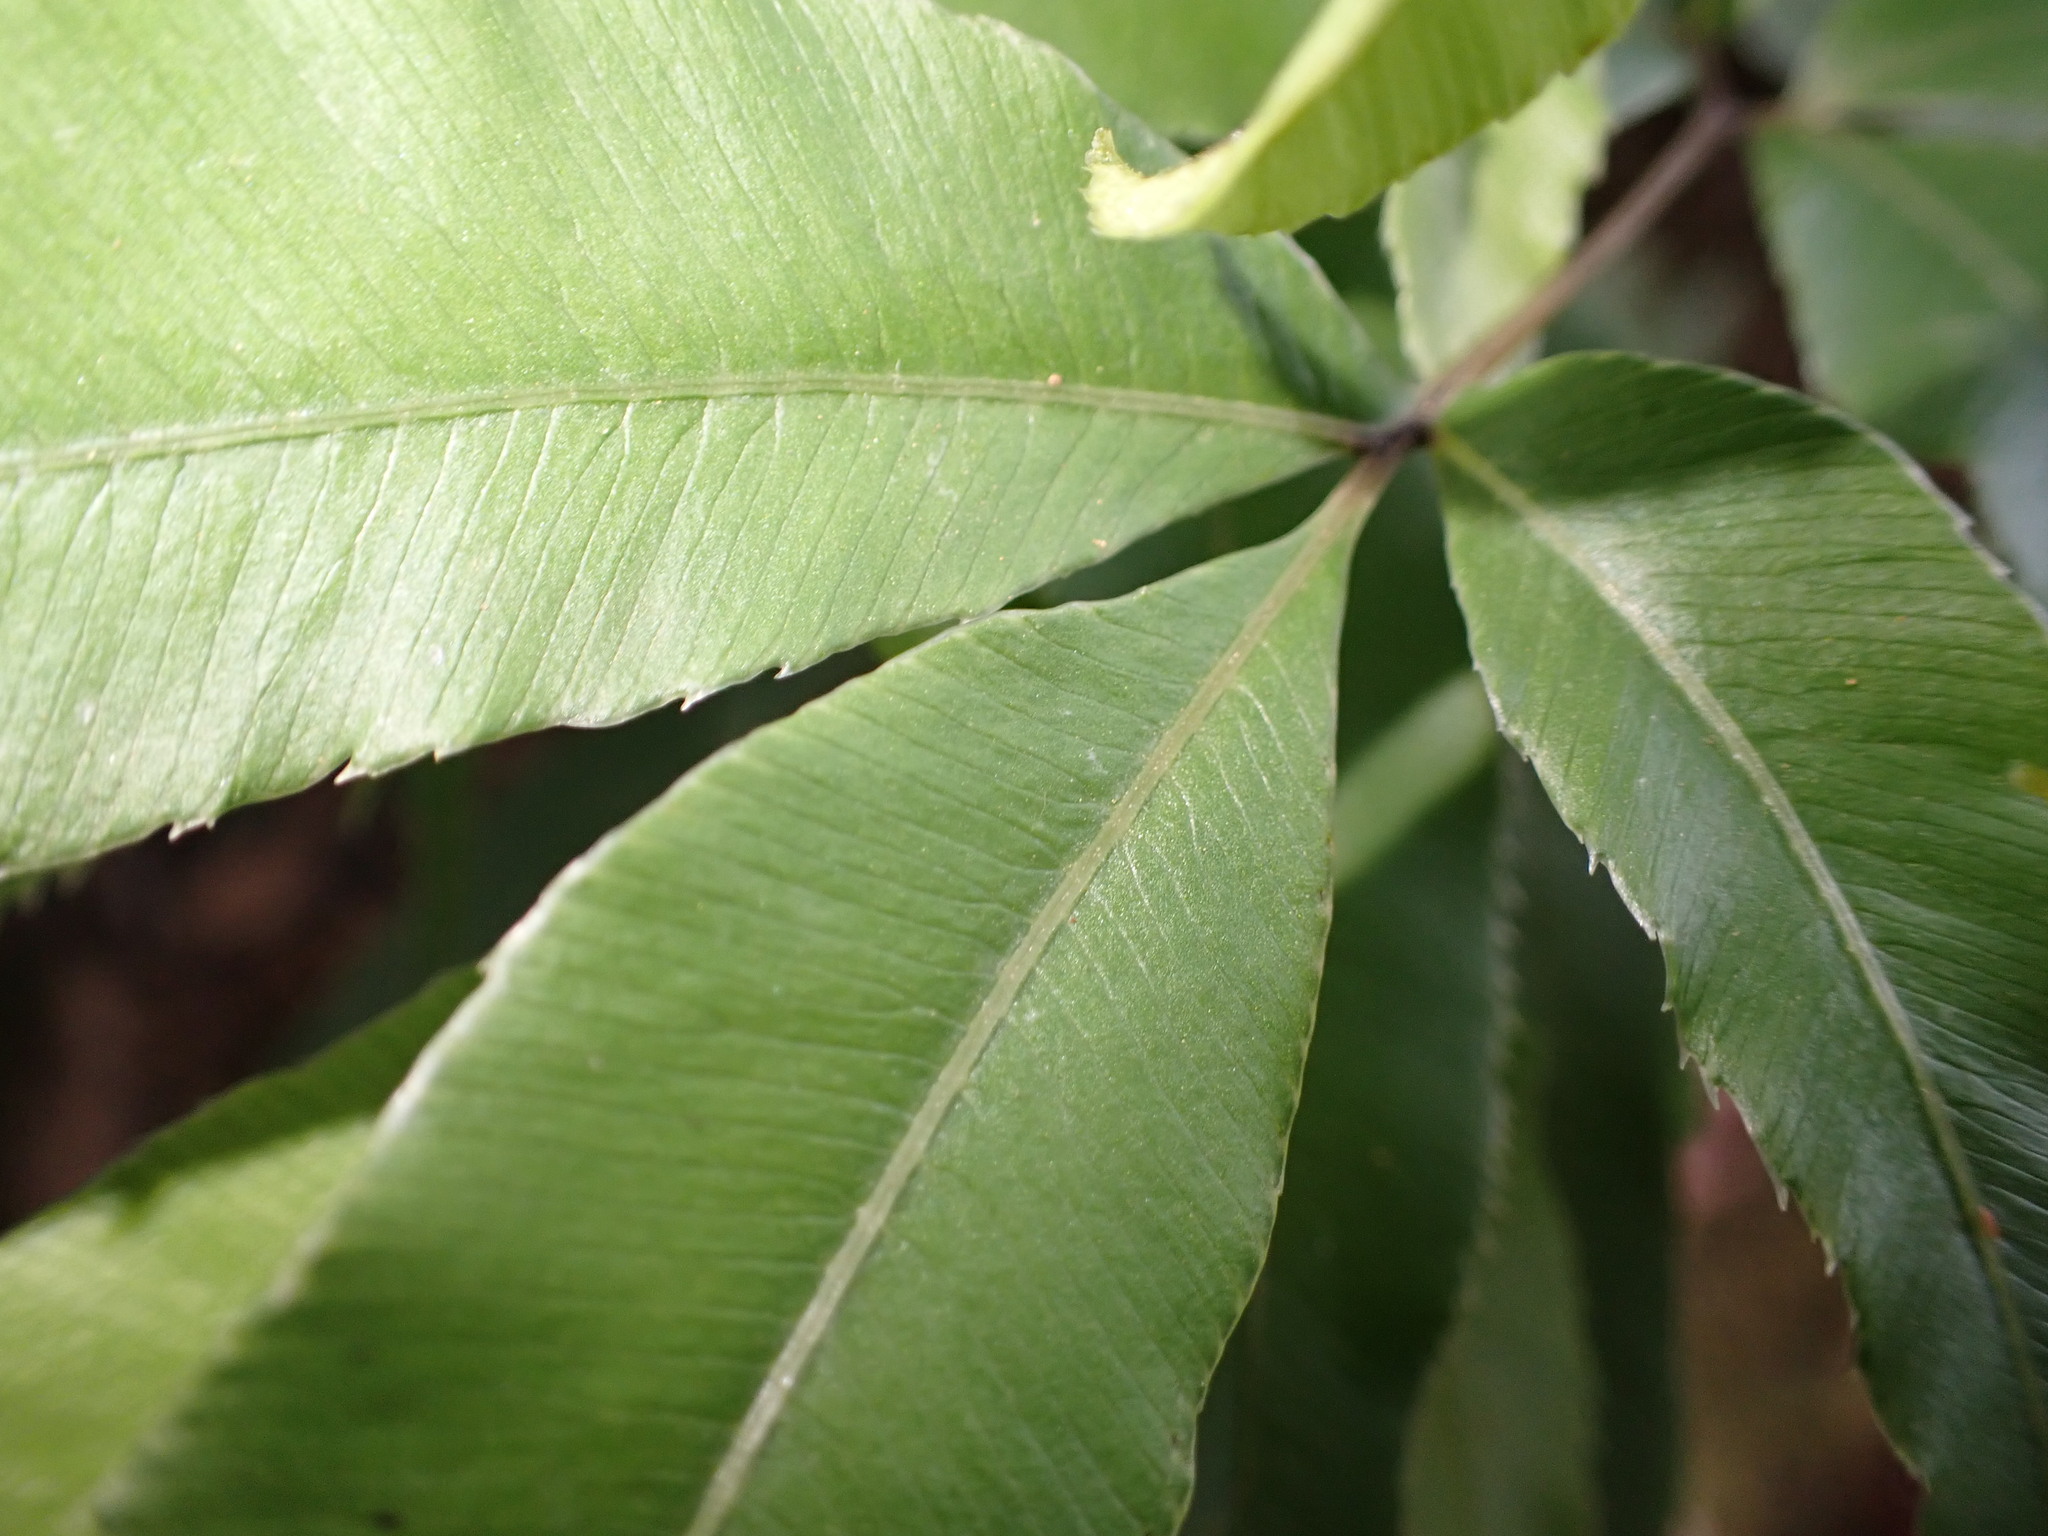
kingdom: Plantae
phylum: Tracheophyta
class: Polypodiopsida
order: Polypodiales
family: Pteridaceae
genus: Pteris
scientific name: Pteris cretica
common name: Ribbon fern
